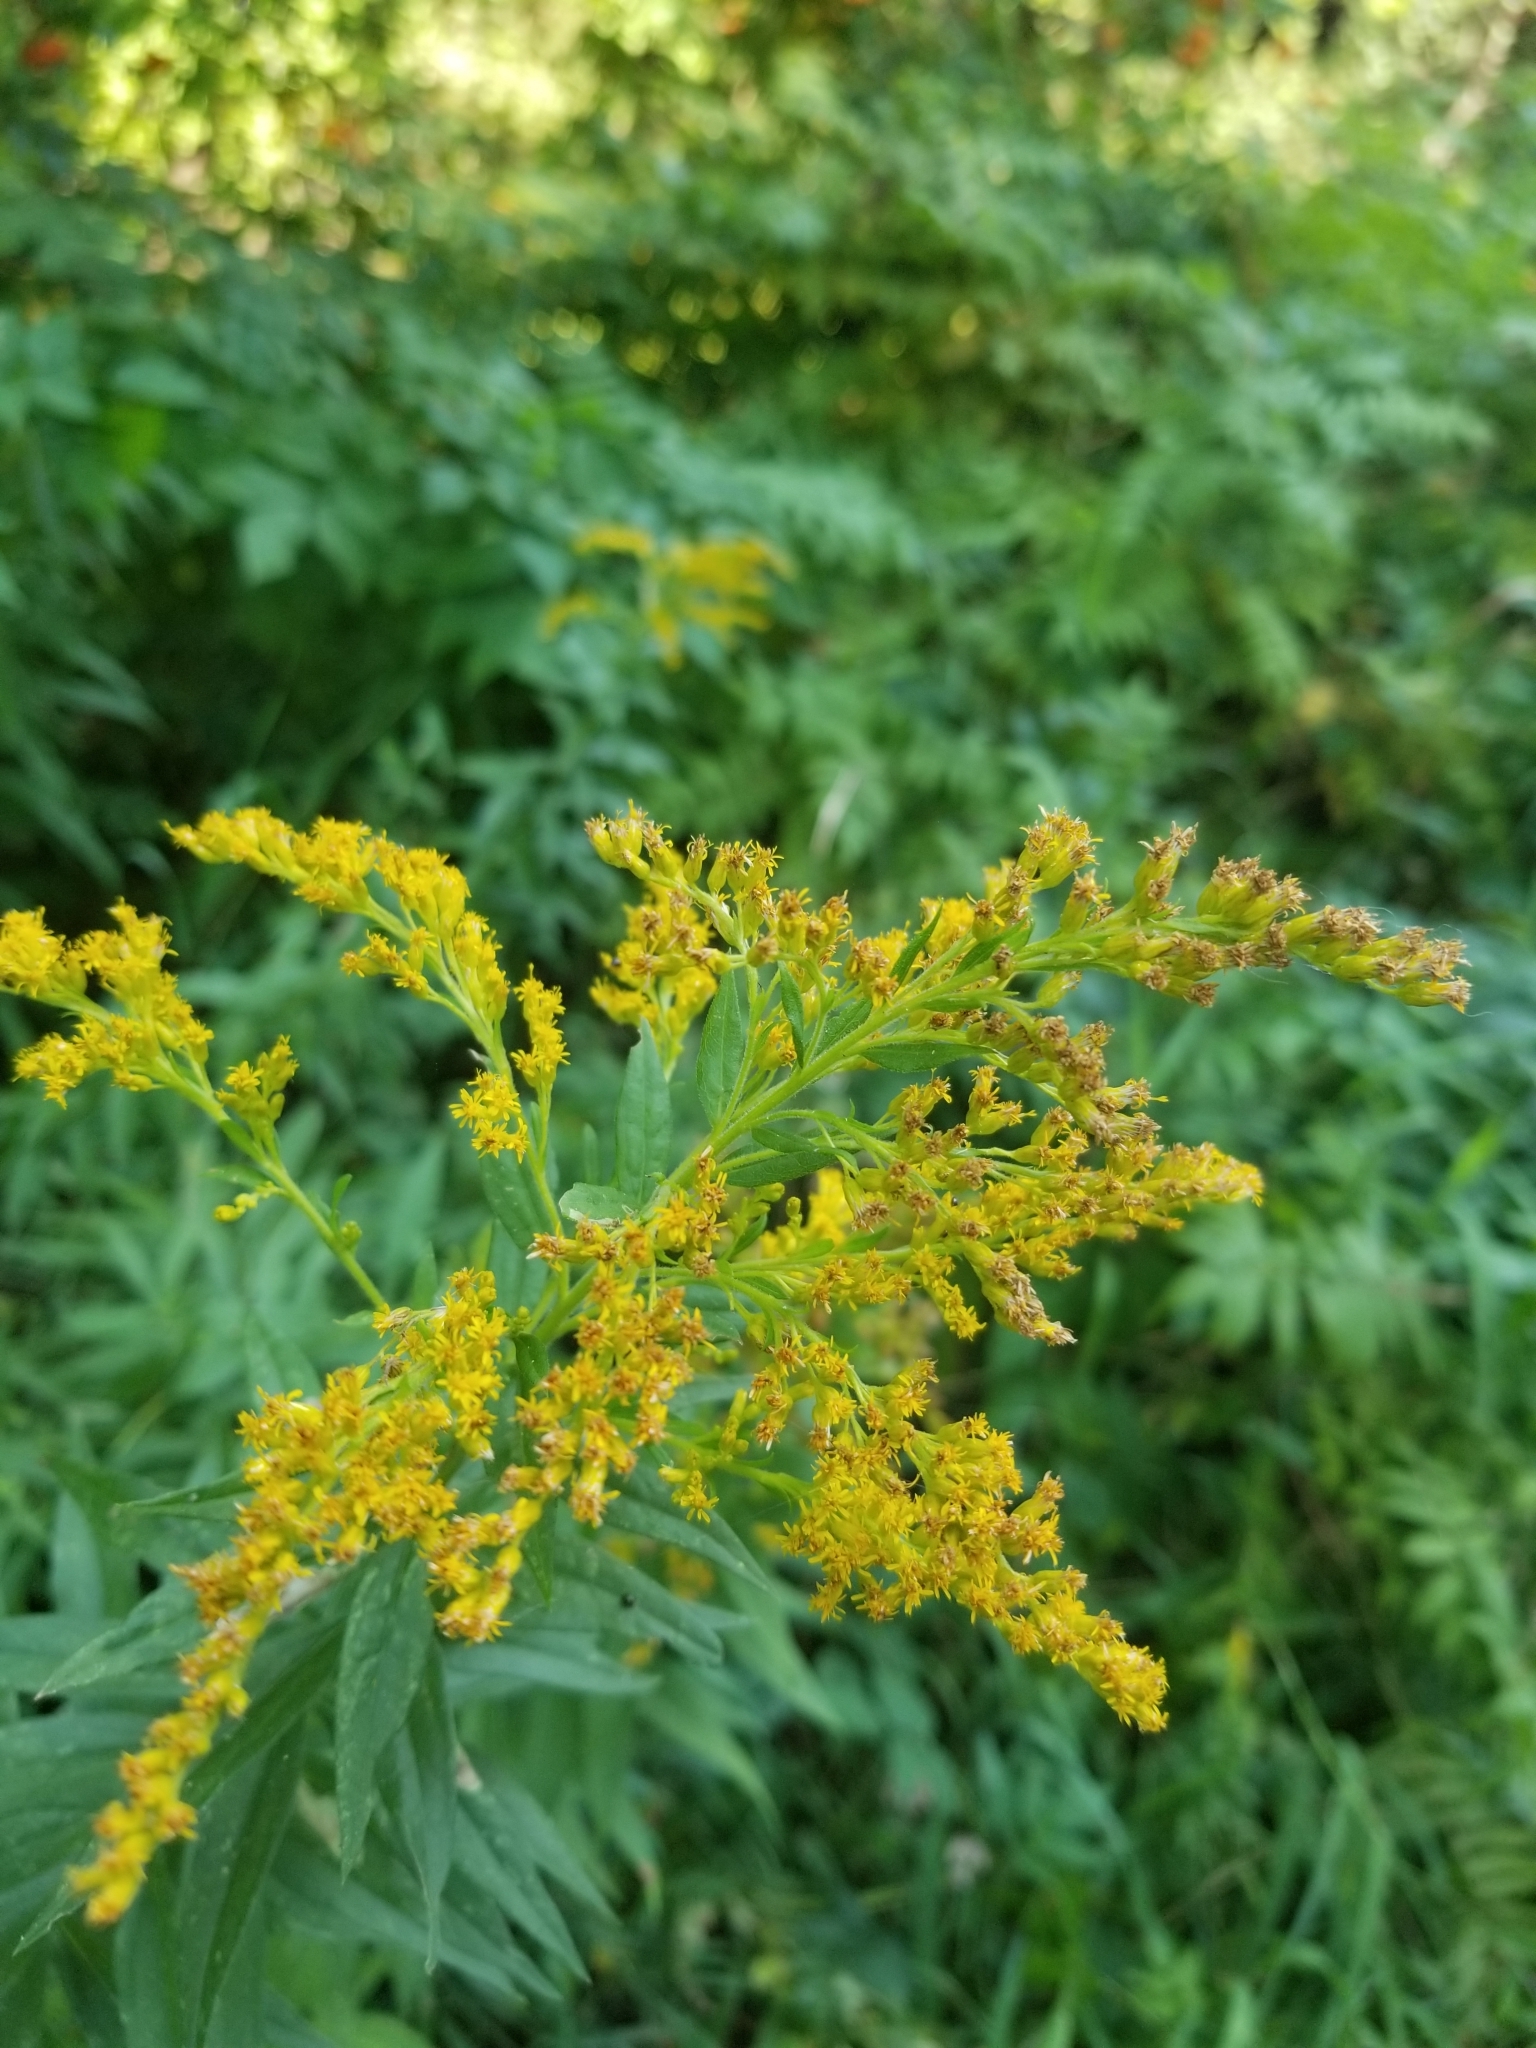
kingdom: Plantae
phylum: Tracheophyta
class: Magnoliopsida
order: Asterales
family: Asteraceae
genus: Solidago
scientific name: Solidago altissima
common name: Late goldenrod
